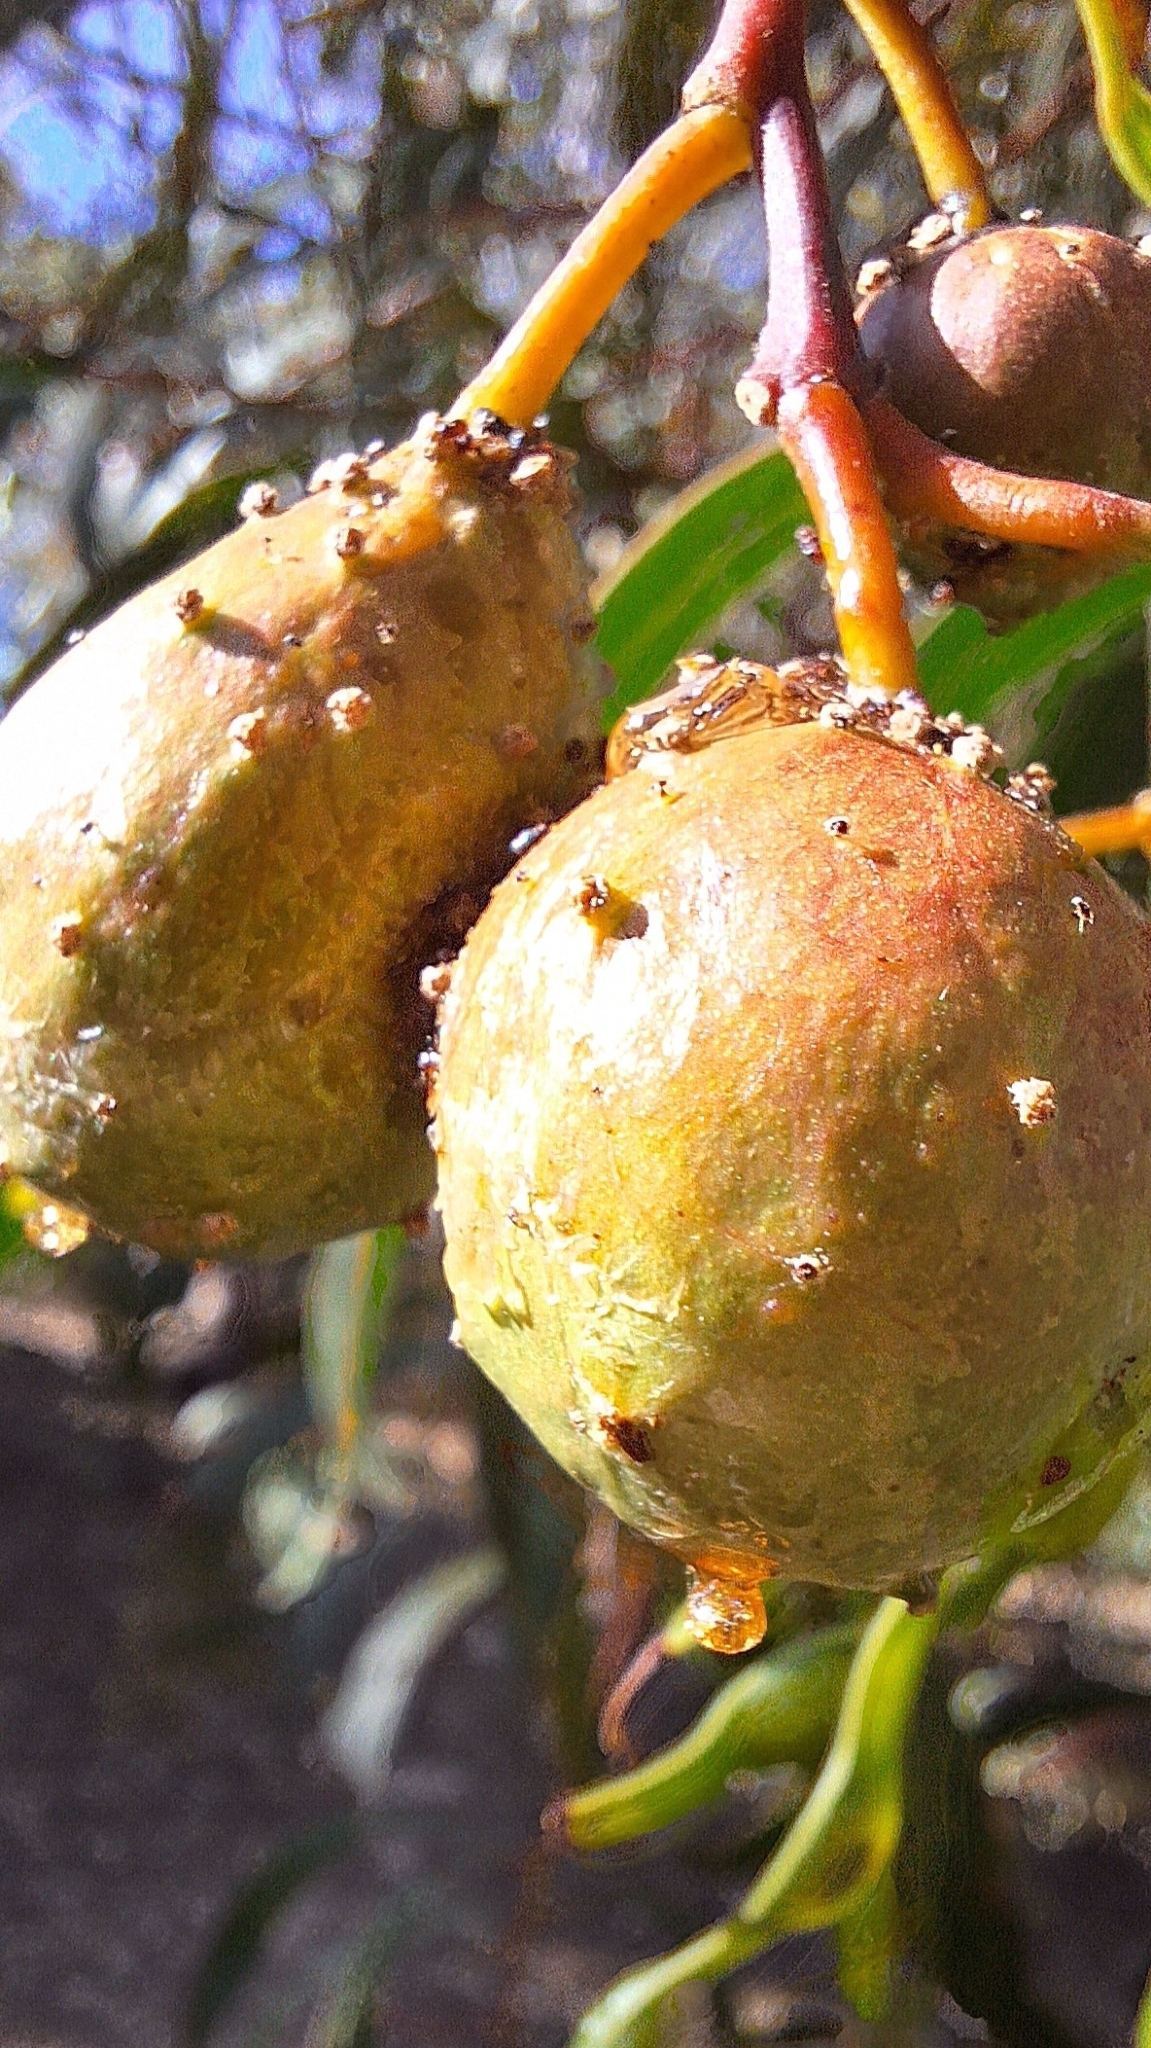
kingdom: Animalia
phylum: Arthropoda
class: Insecta
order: Hymenoptera
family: Pteromalidae
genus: Trichilogaster
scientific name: Trichilogaster signiventris
